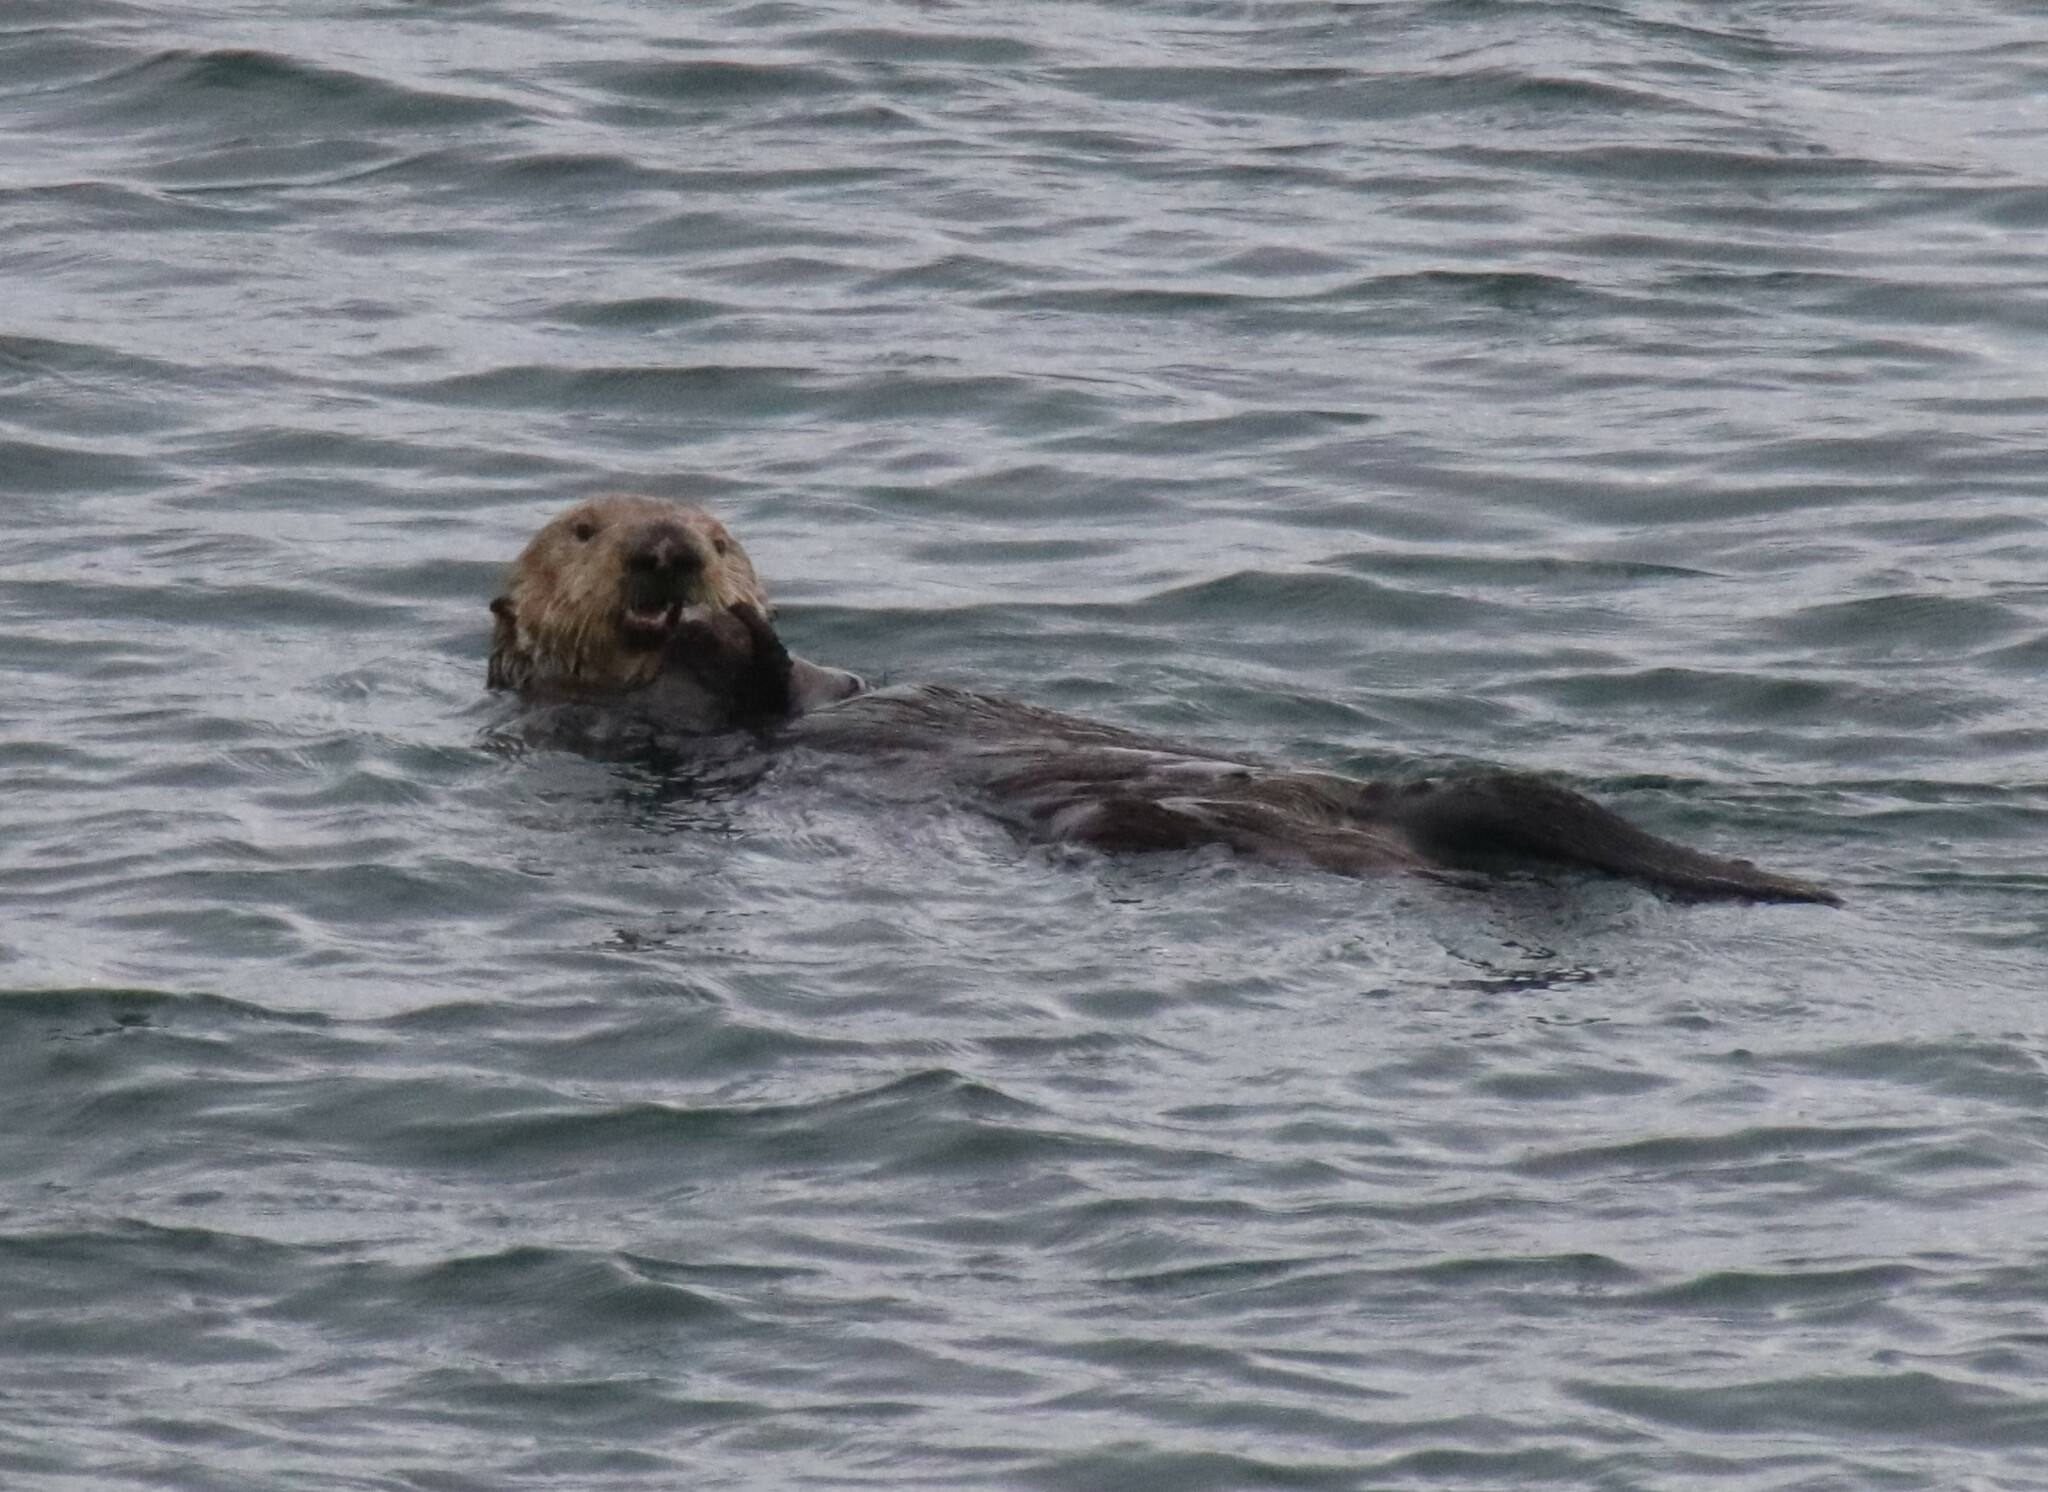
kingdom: Animalia
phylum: Chordata
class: Mammalia
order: Carnivora
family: Mustelidae
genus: Enhydra
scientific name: Enhydra lutris
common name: Sea otter
